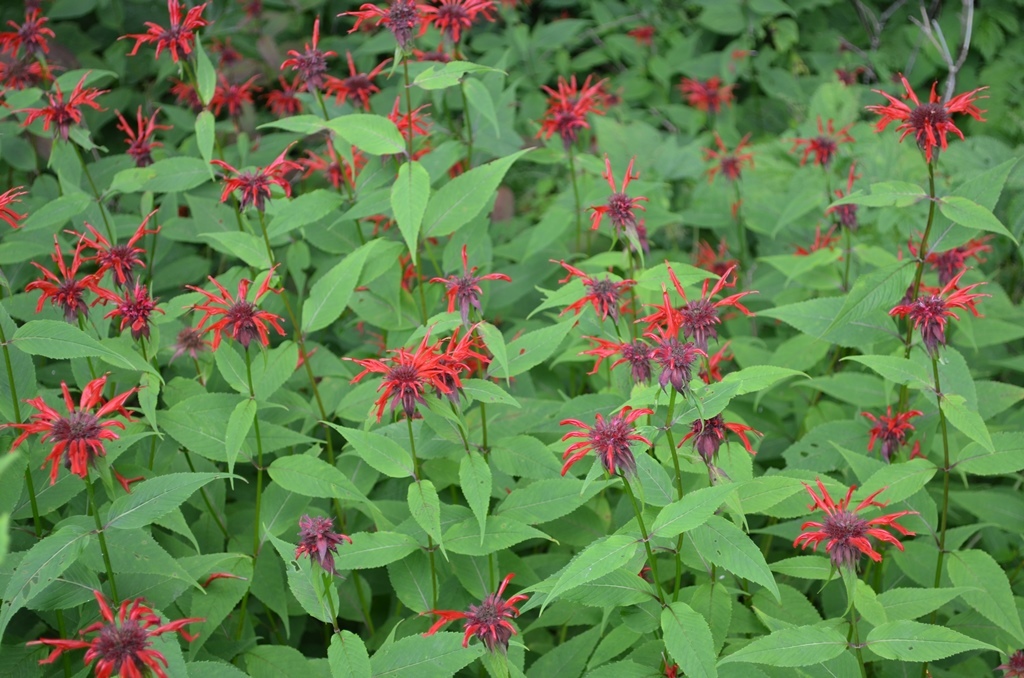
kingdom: Plantae
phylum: Tracheophyta
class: Magnoliopsida
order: Lamiales
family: Lamiaceae
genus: Monarda
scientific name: Monarda didyma
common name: Beebalm
